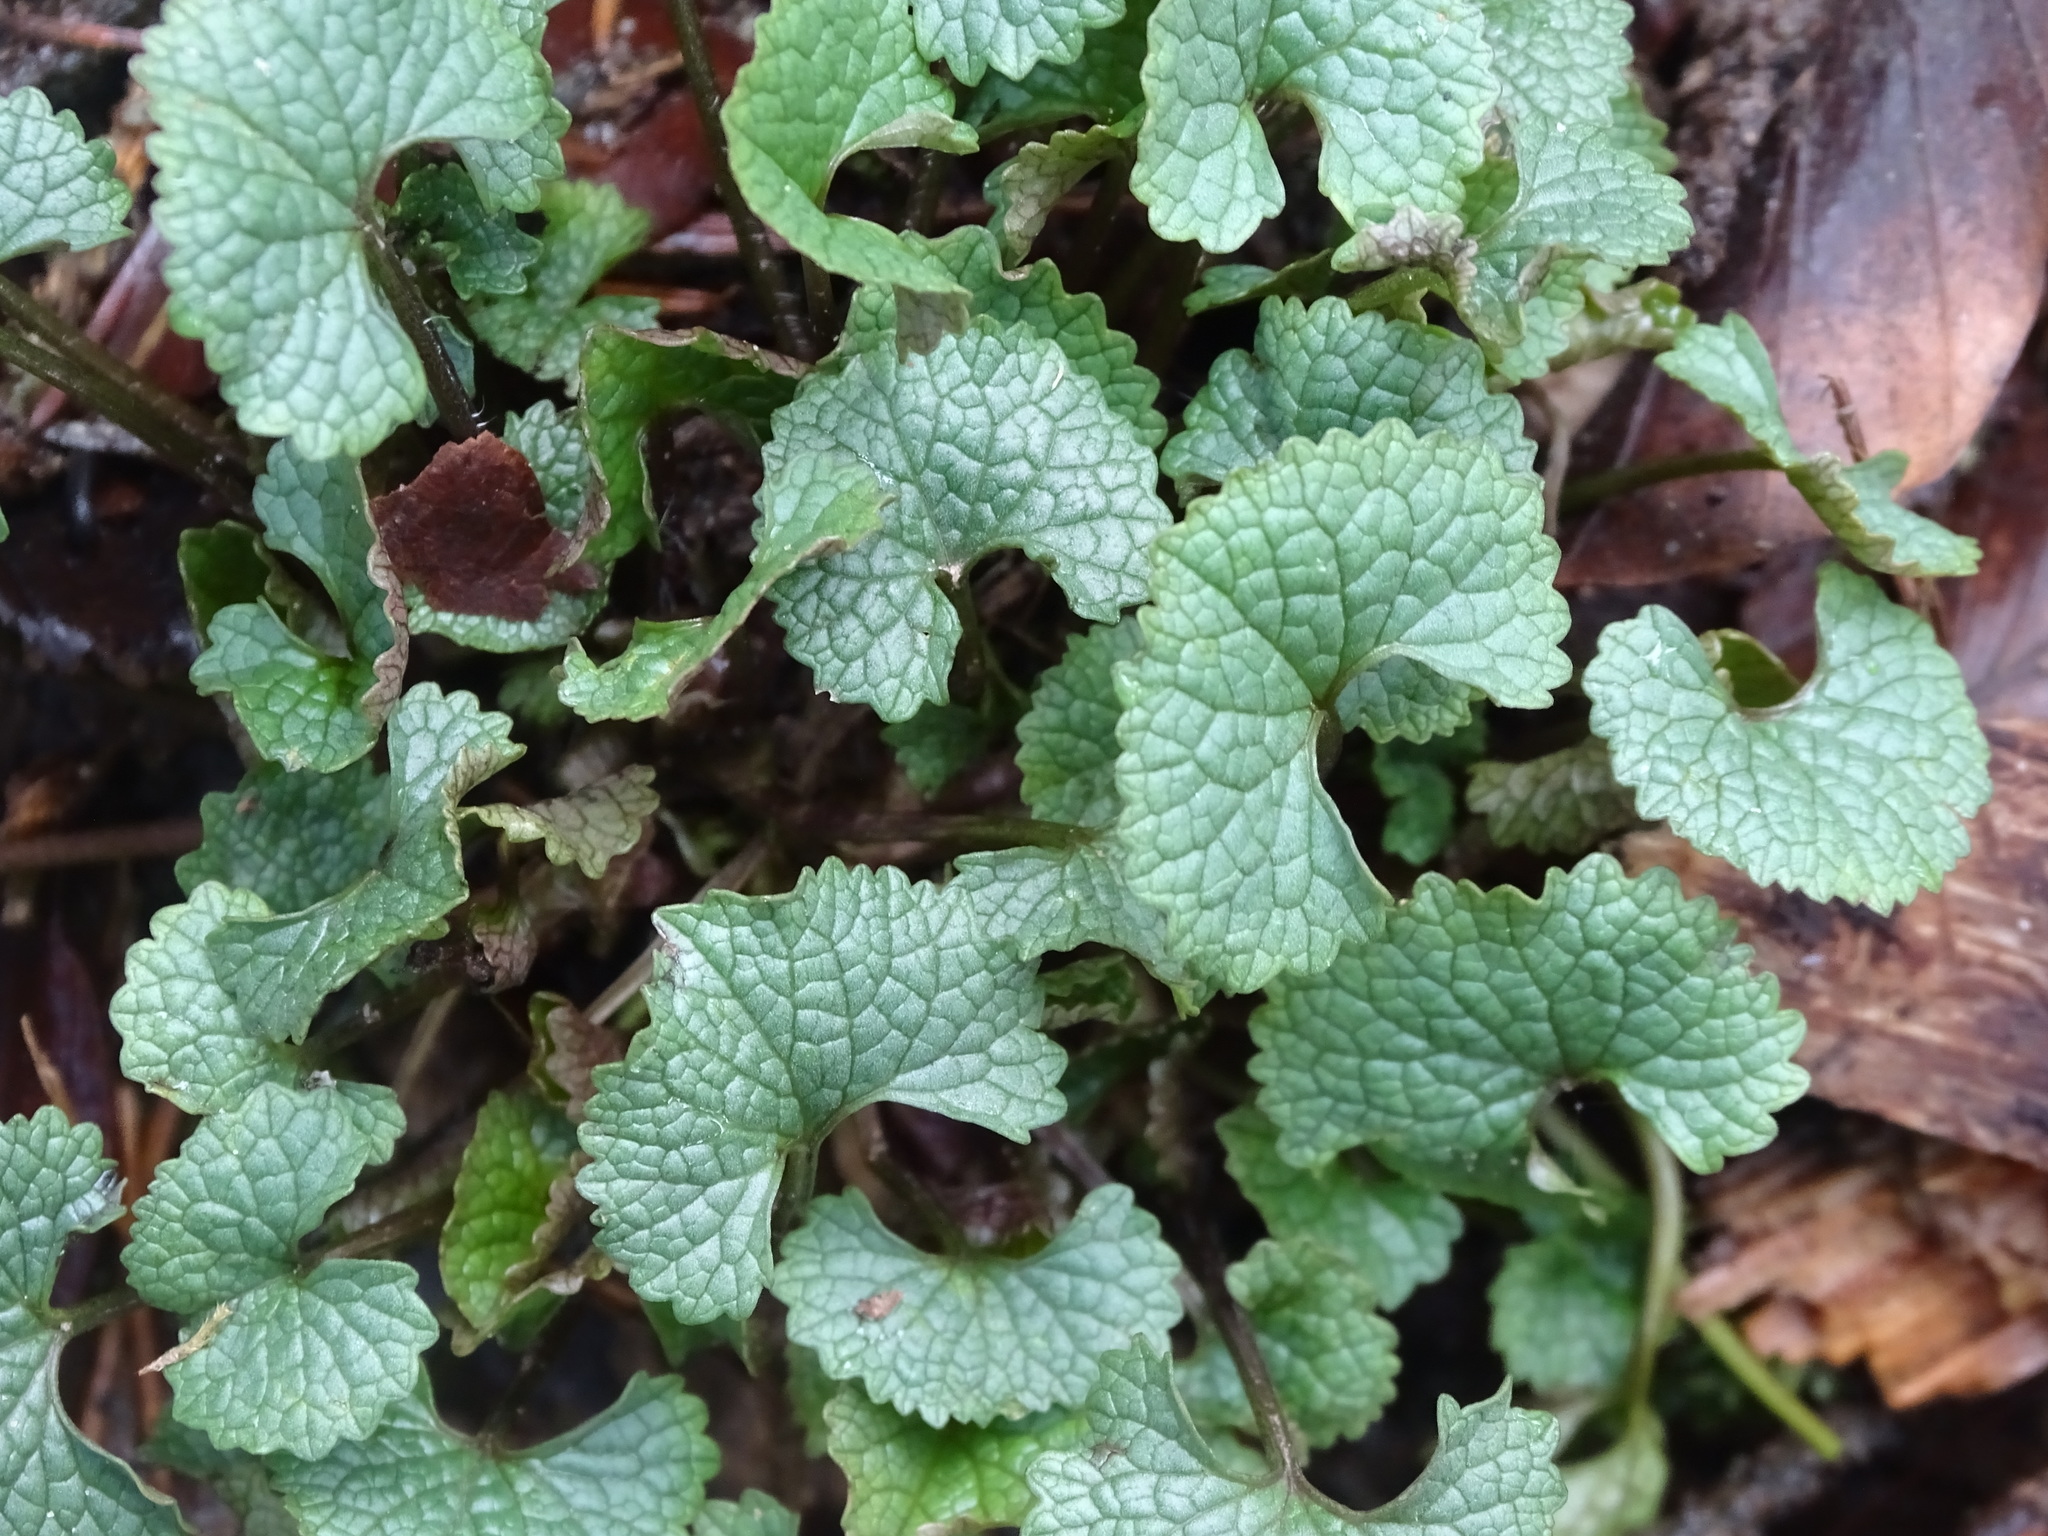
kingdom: Plantae
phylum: Tracheophyta
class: Magnoliopsida
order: Brassicales
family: Brassicaceae
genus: Alliaria
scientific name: Alliaria petiolata
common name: Garlic mustard
